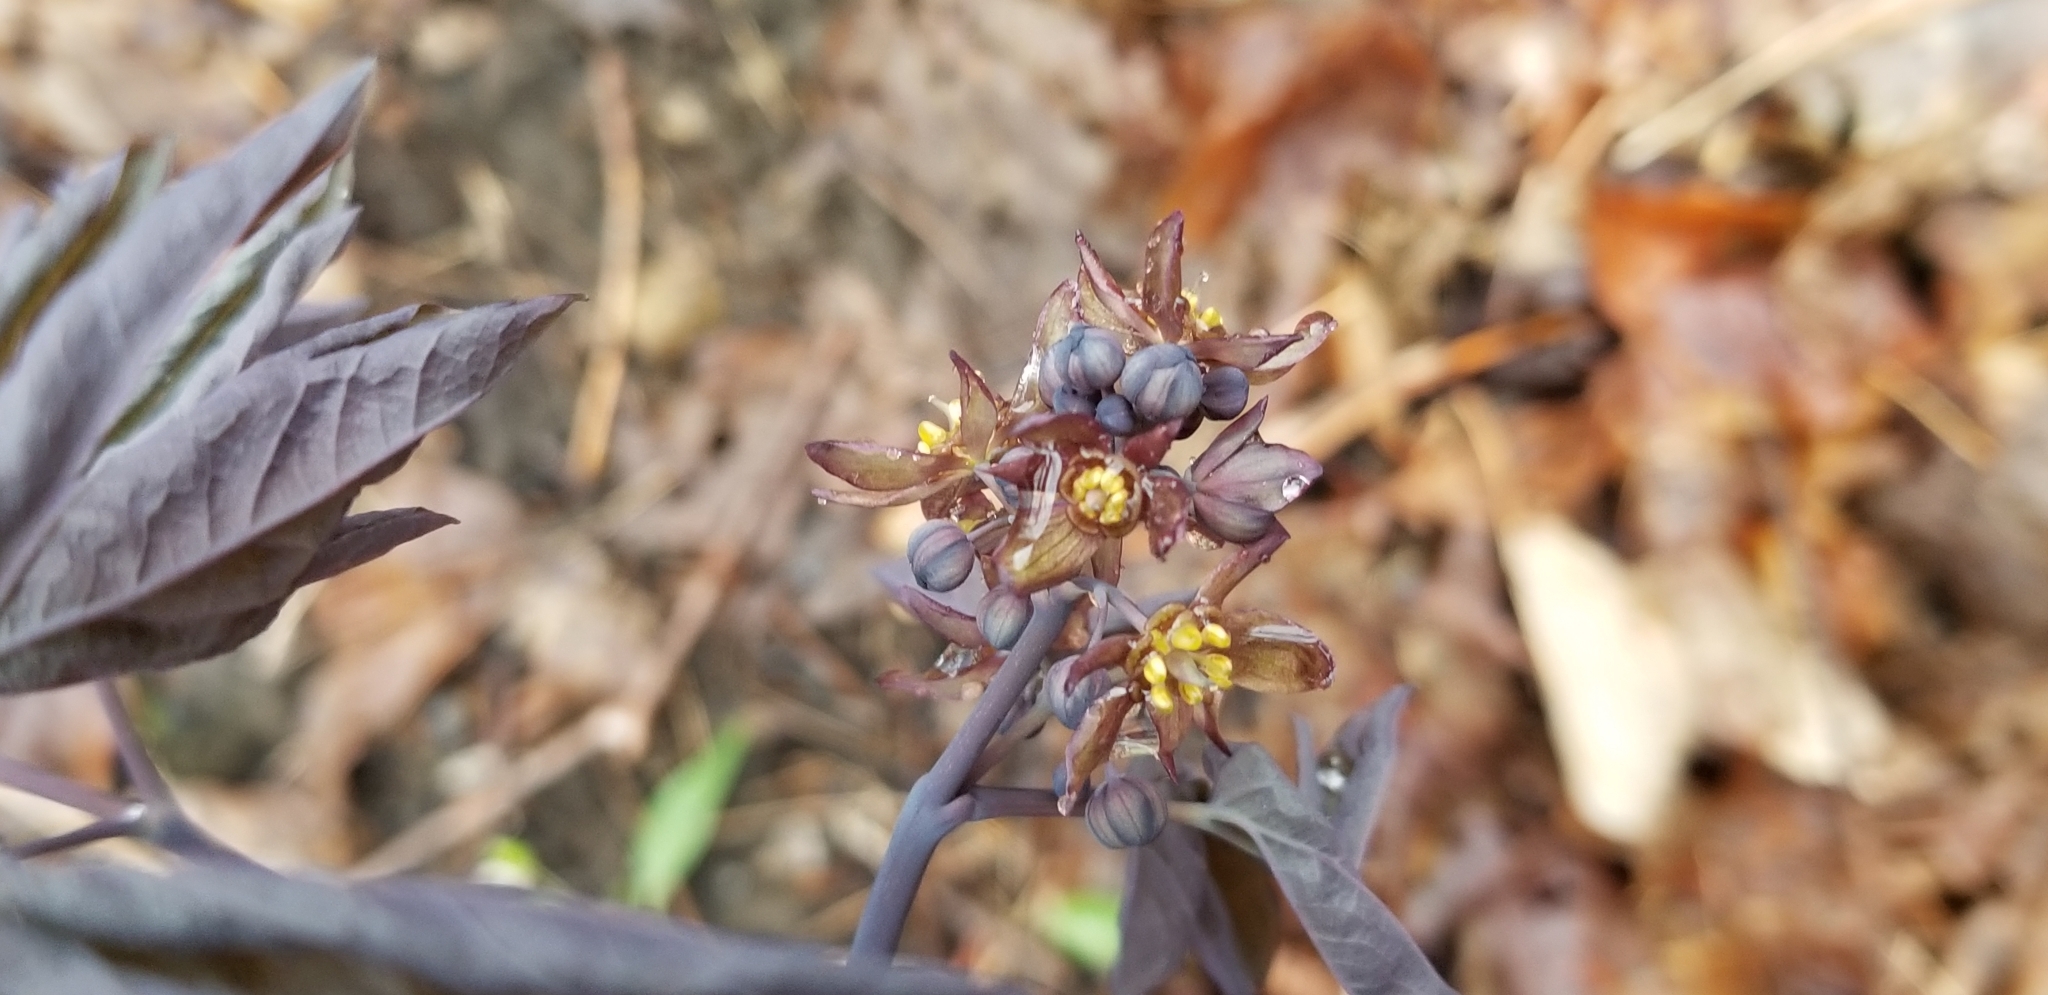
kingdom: Plantae
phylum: Tracheophyta
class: Magnoliopsida
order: Ranunculales
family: Berberidaceae
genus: Caulophyllum
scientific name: Caulophyllum giganteum
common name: Blue cohosh
